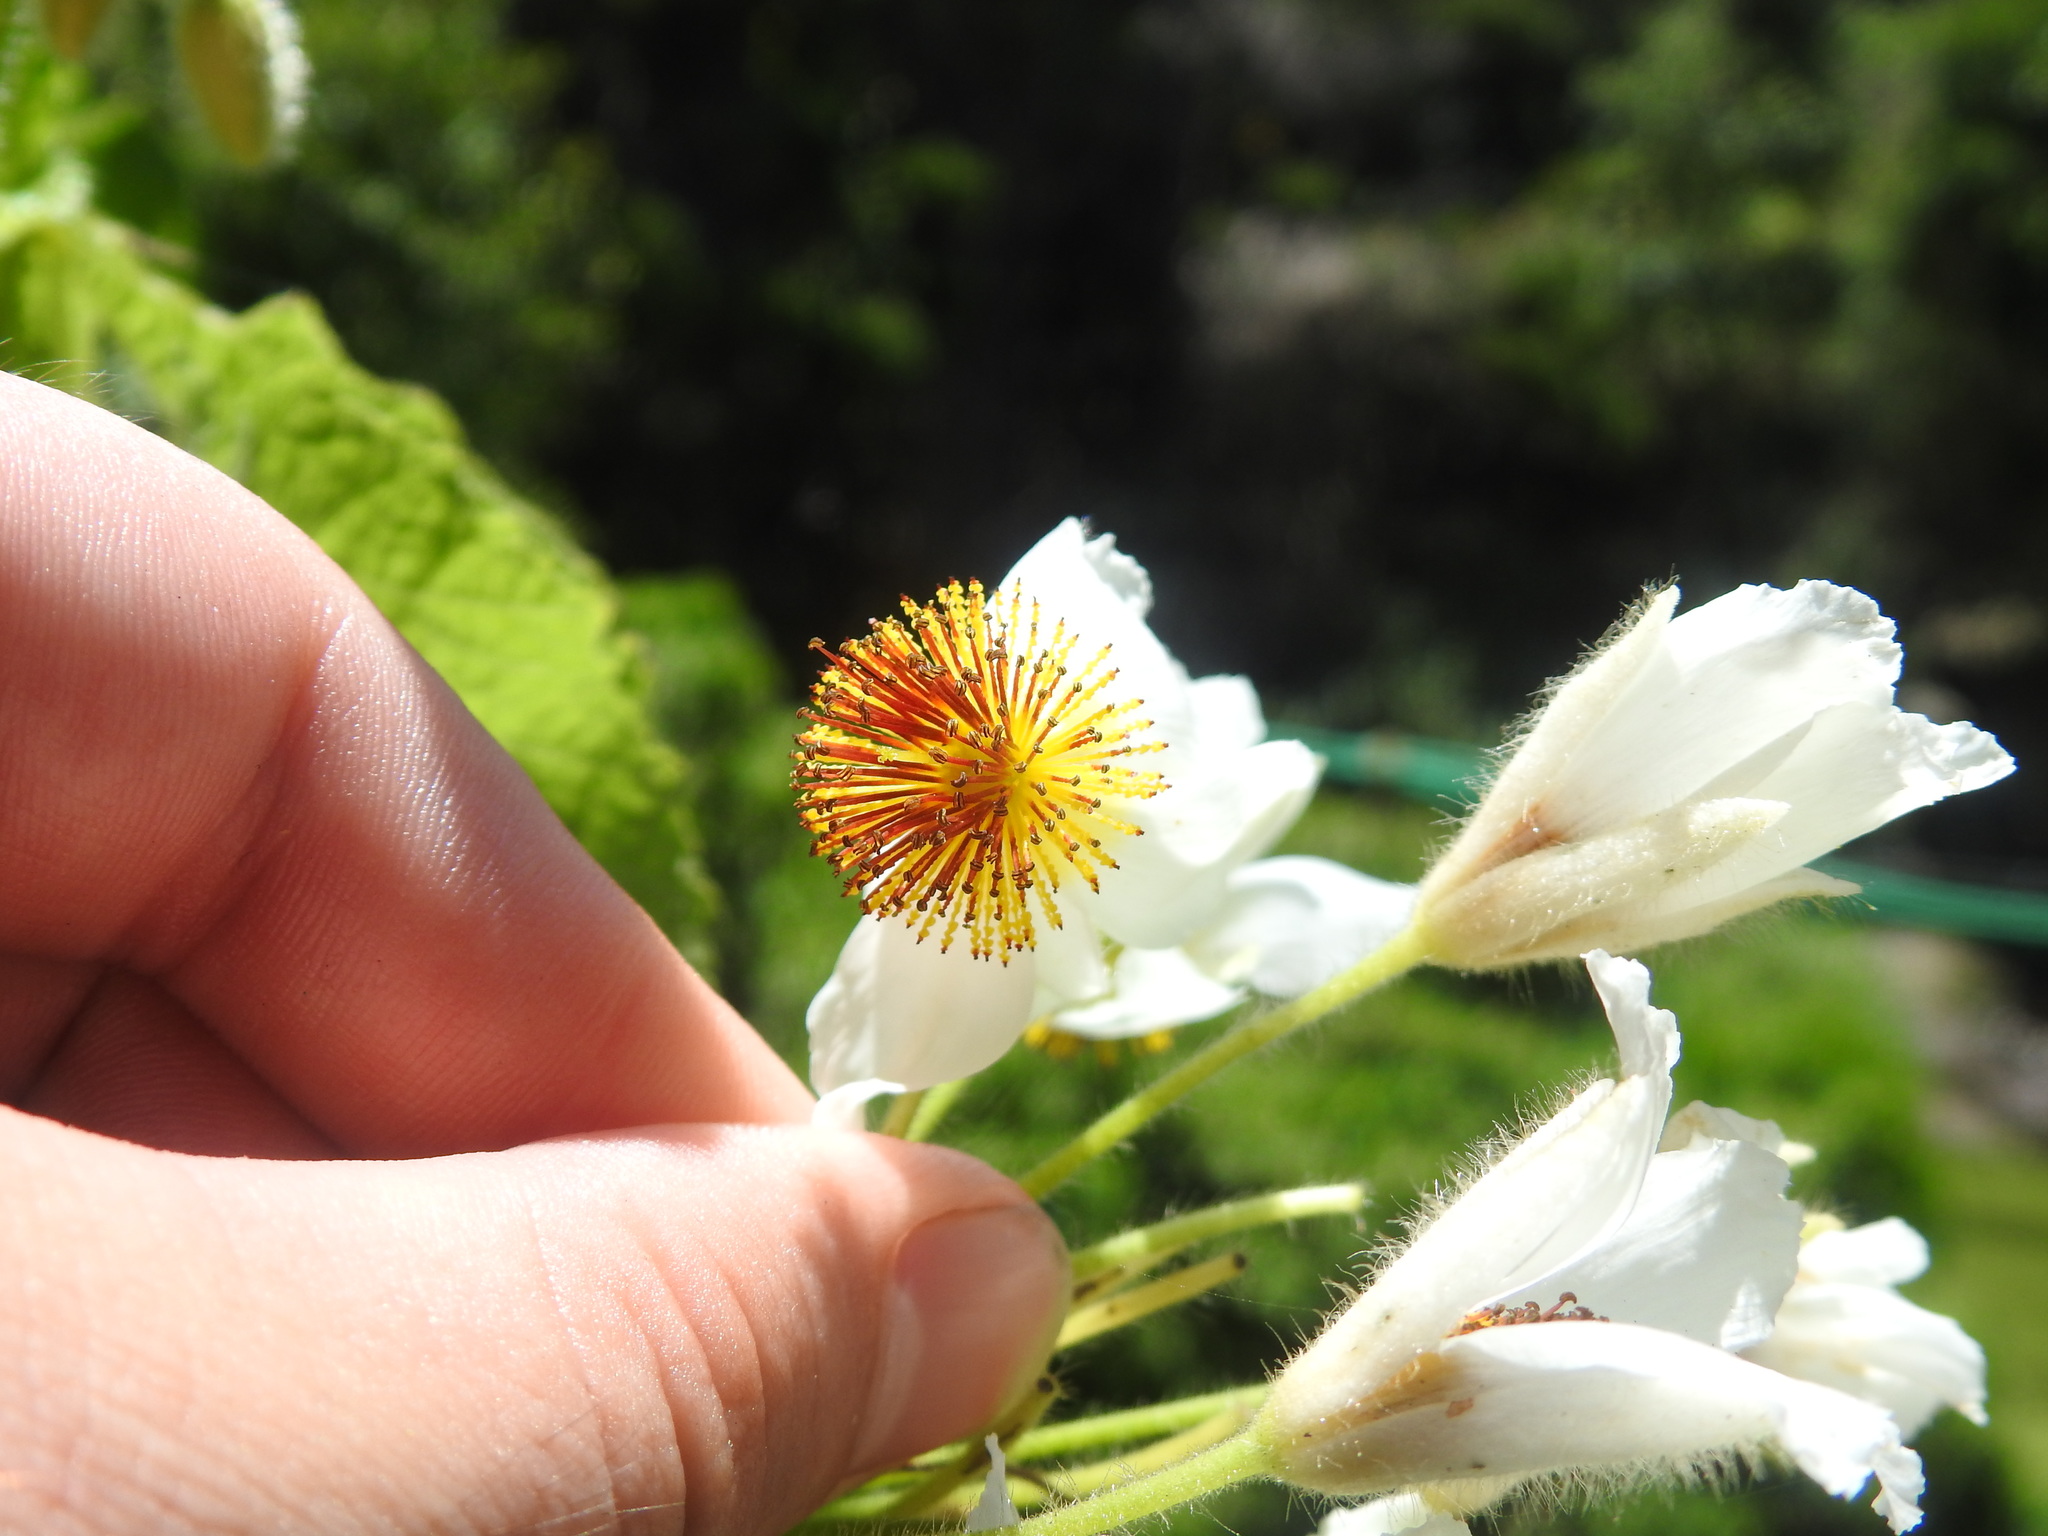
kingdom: Plantae
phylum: Tracheophyta
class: Magnoliopsida
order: Malvales
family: Malvaceae
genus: Sparrmannia
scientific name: Sparrmannia africana
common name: African-hemp
